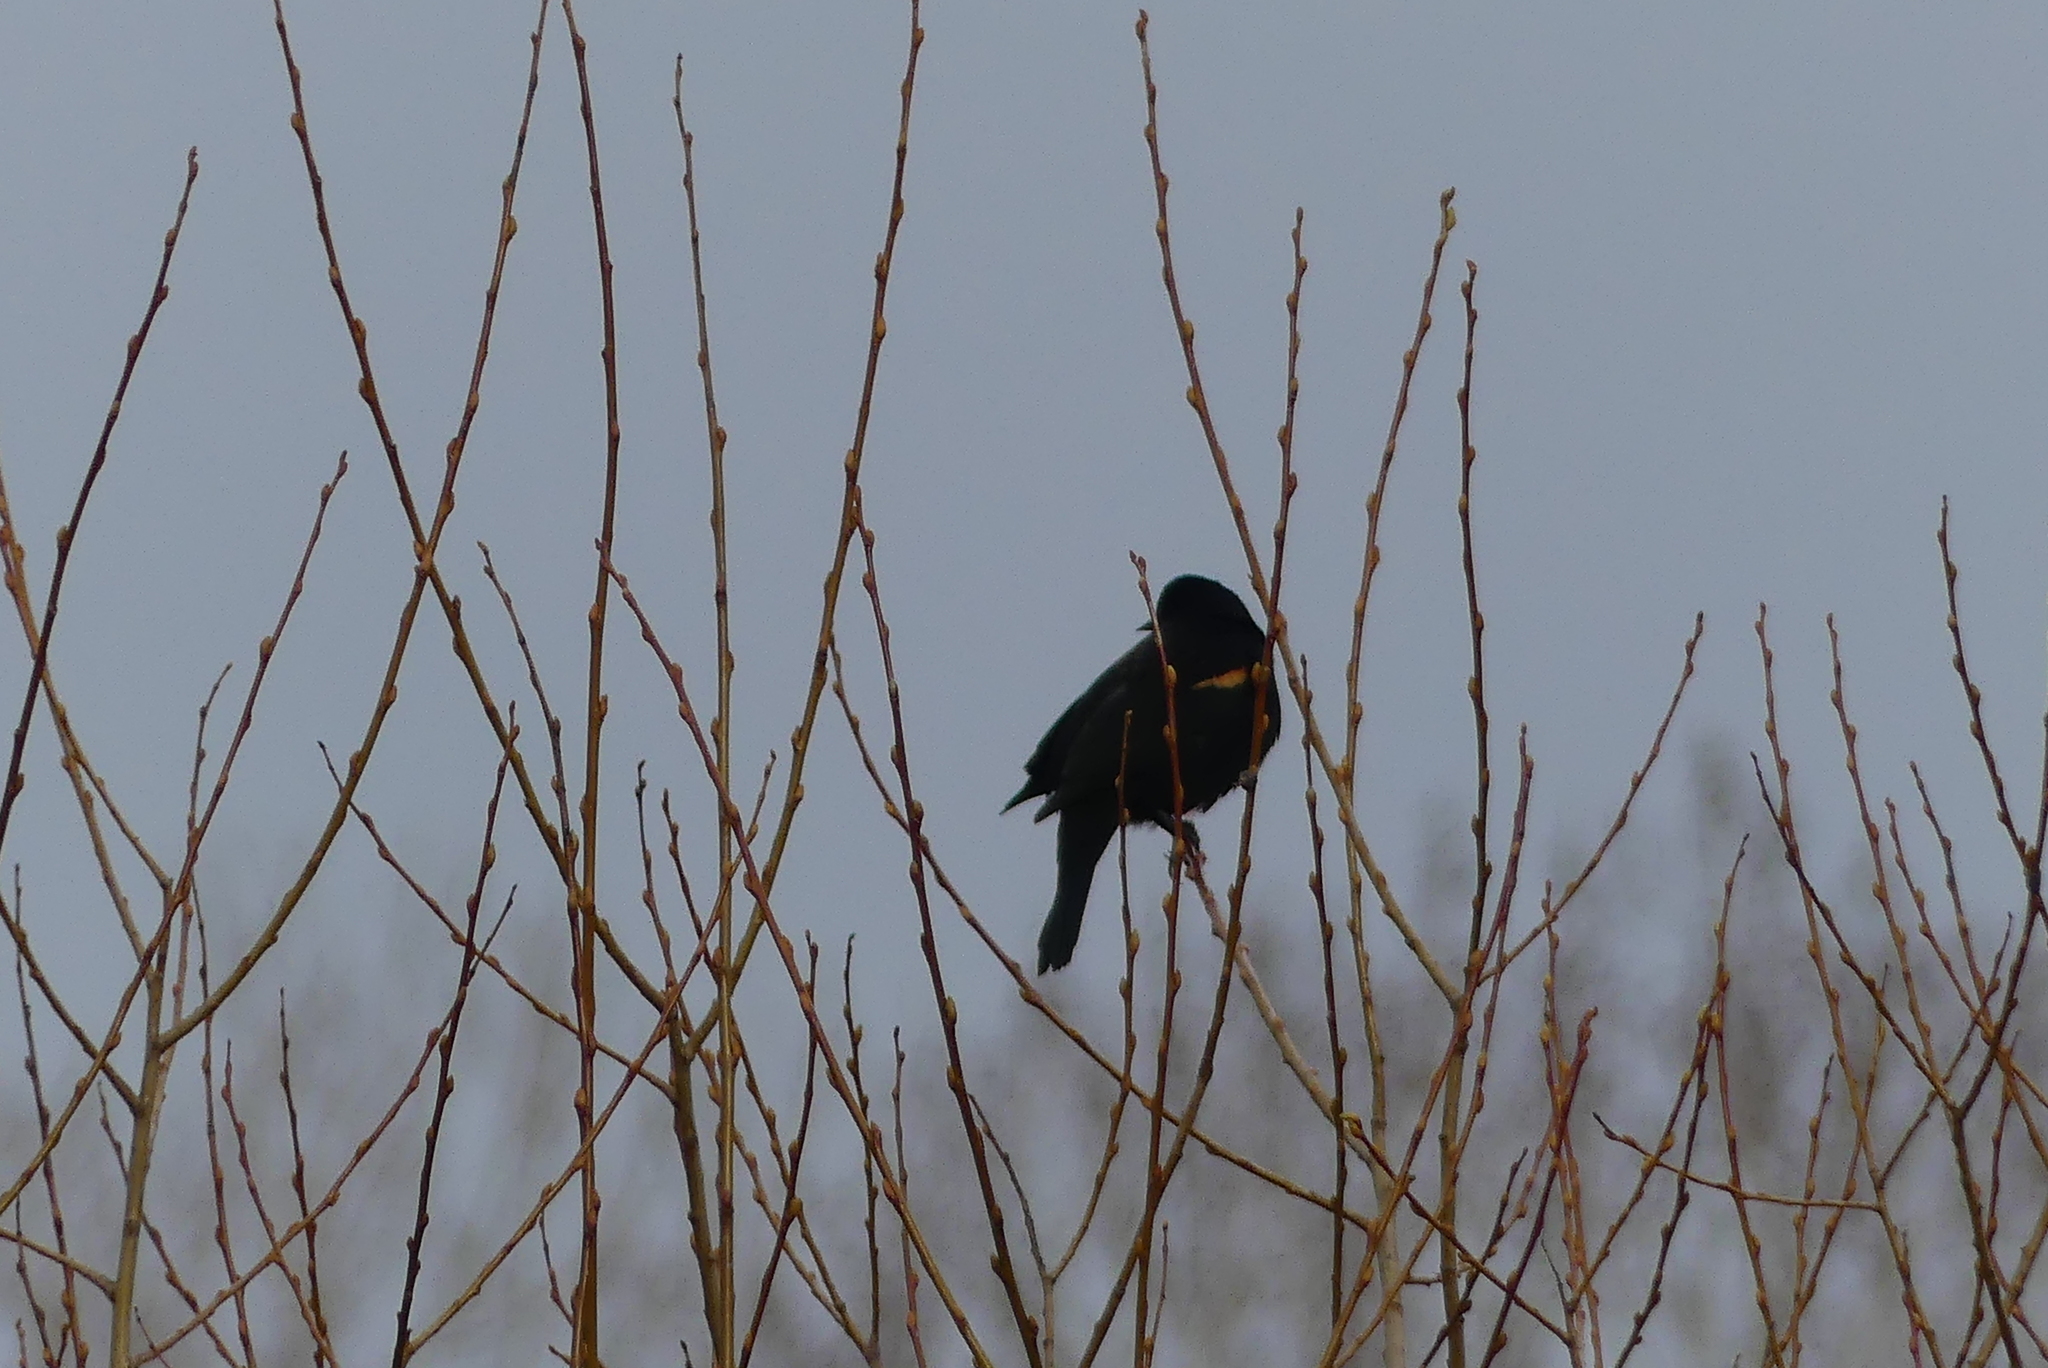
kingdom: Animalia
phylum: Chordata
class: Aves
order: Passeriformes
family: Icteridae
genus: Agelaius
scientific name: Agelaius phoeniceus
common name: Red-winged blackbird
